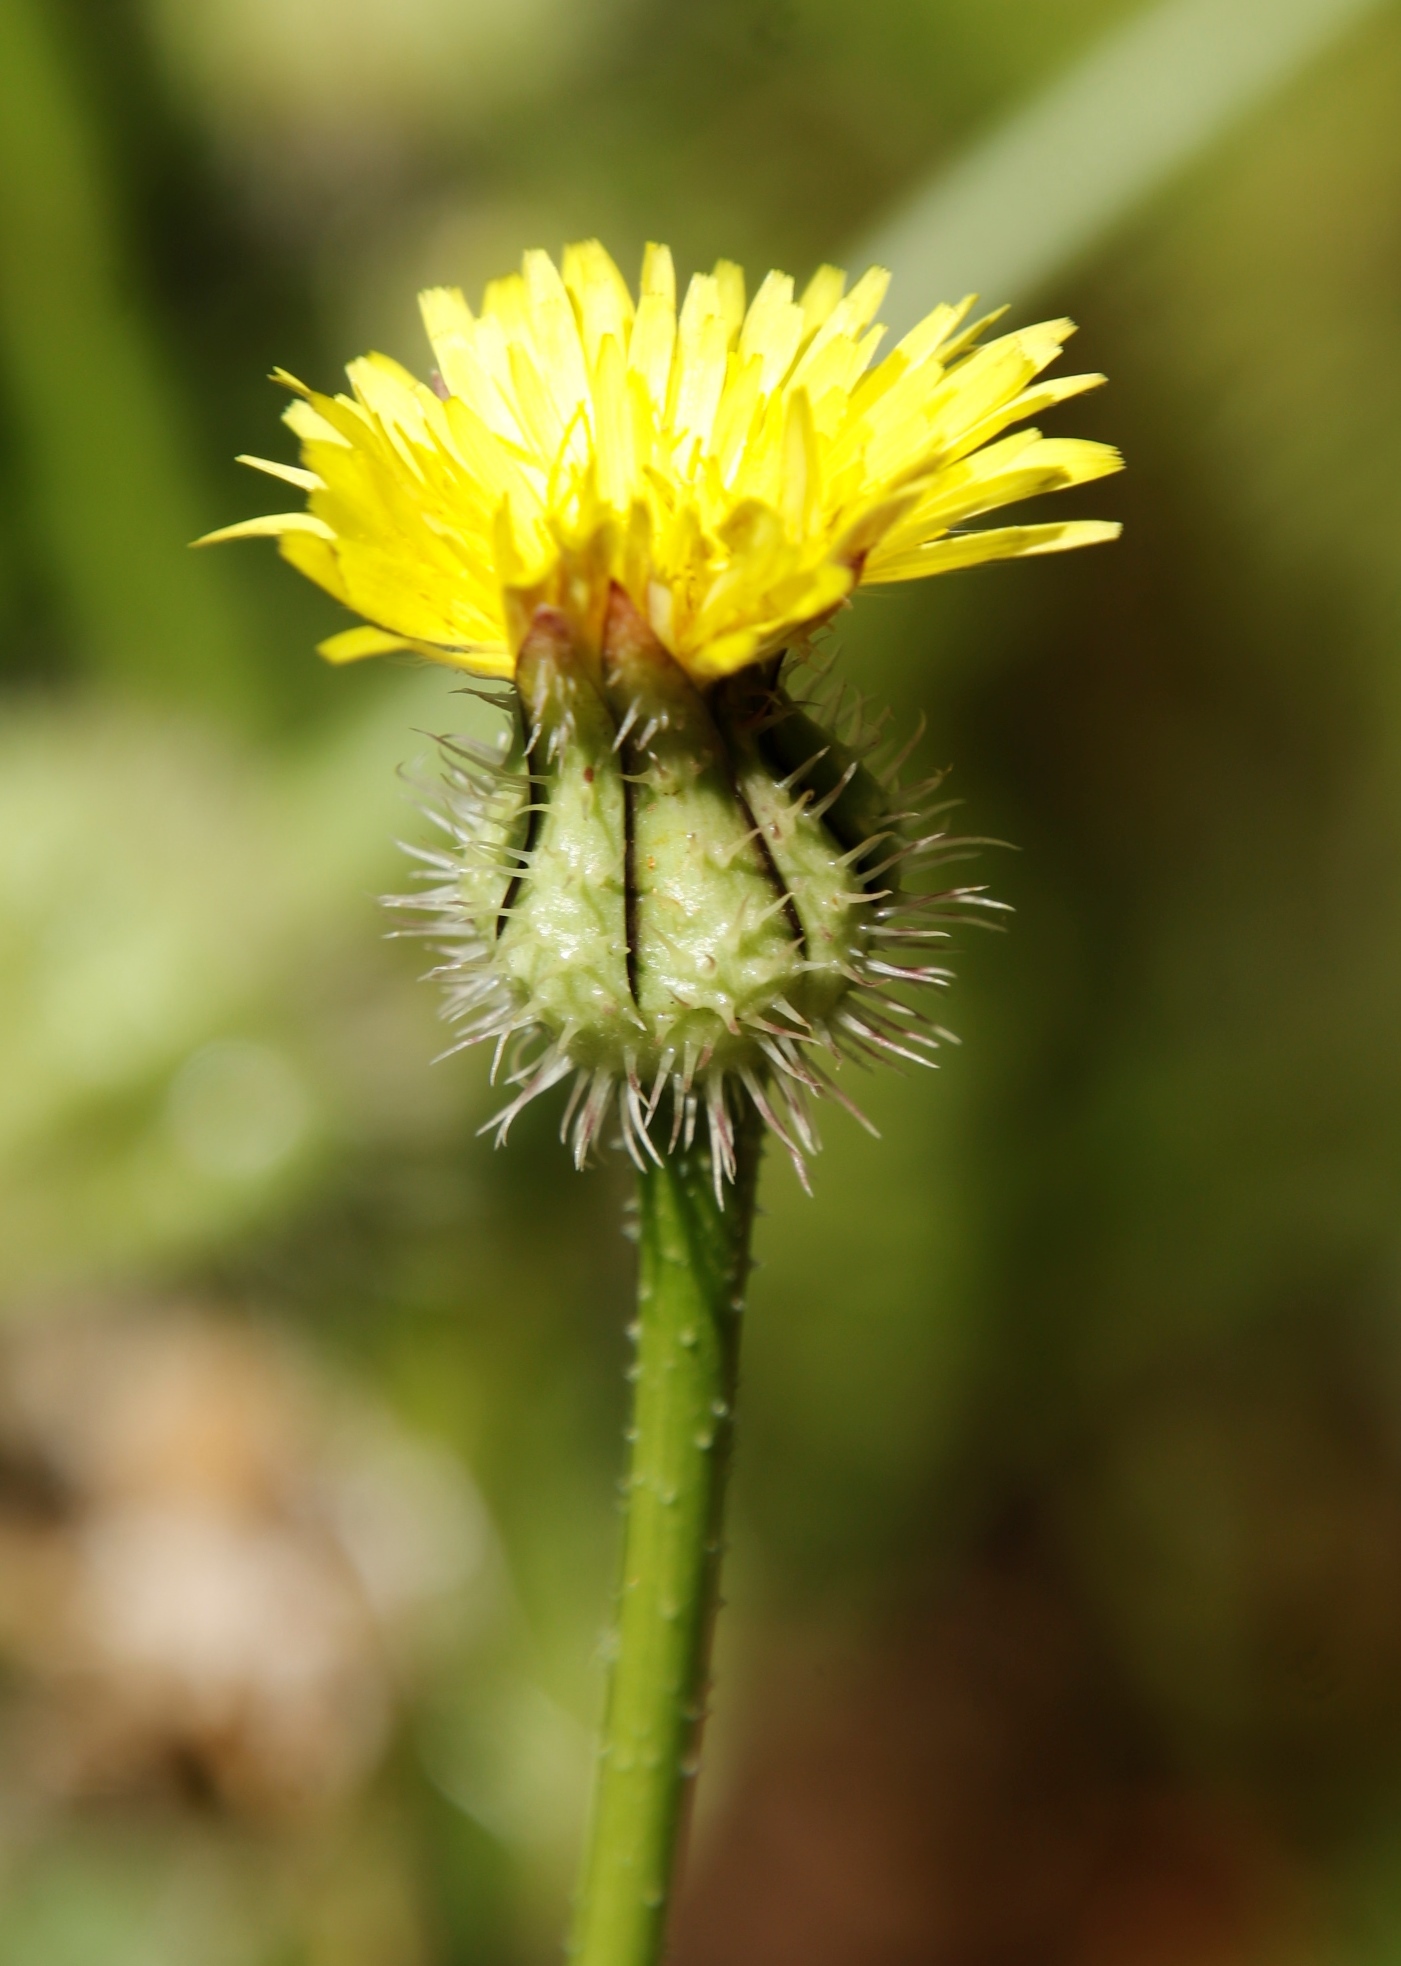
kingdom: Plantae
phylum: Tracheophyta
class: Magnoliopsida
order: Asterales
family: Asteraceae
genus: Urospermum
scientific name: Urospermum picroides
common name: False hawkbit
